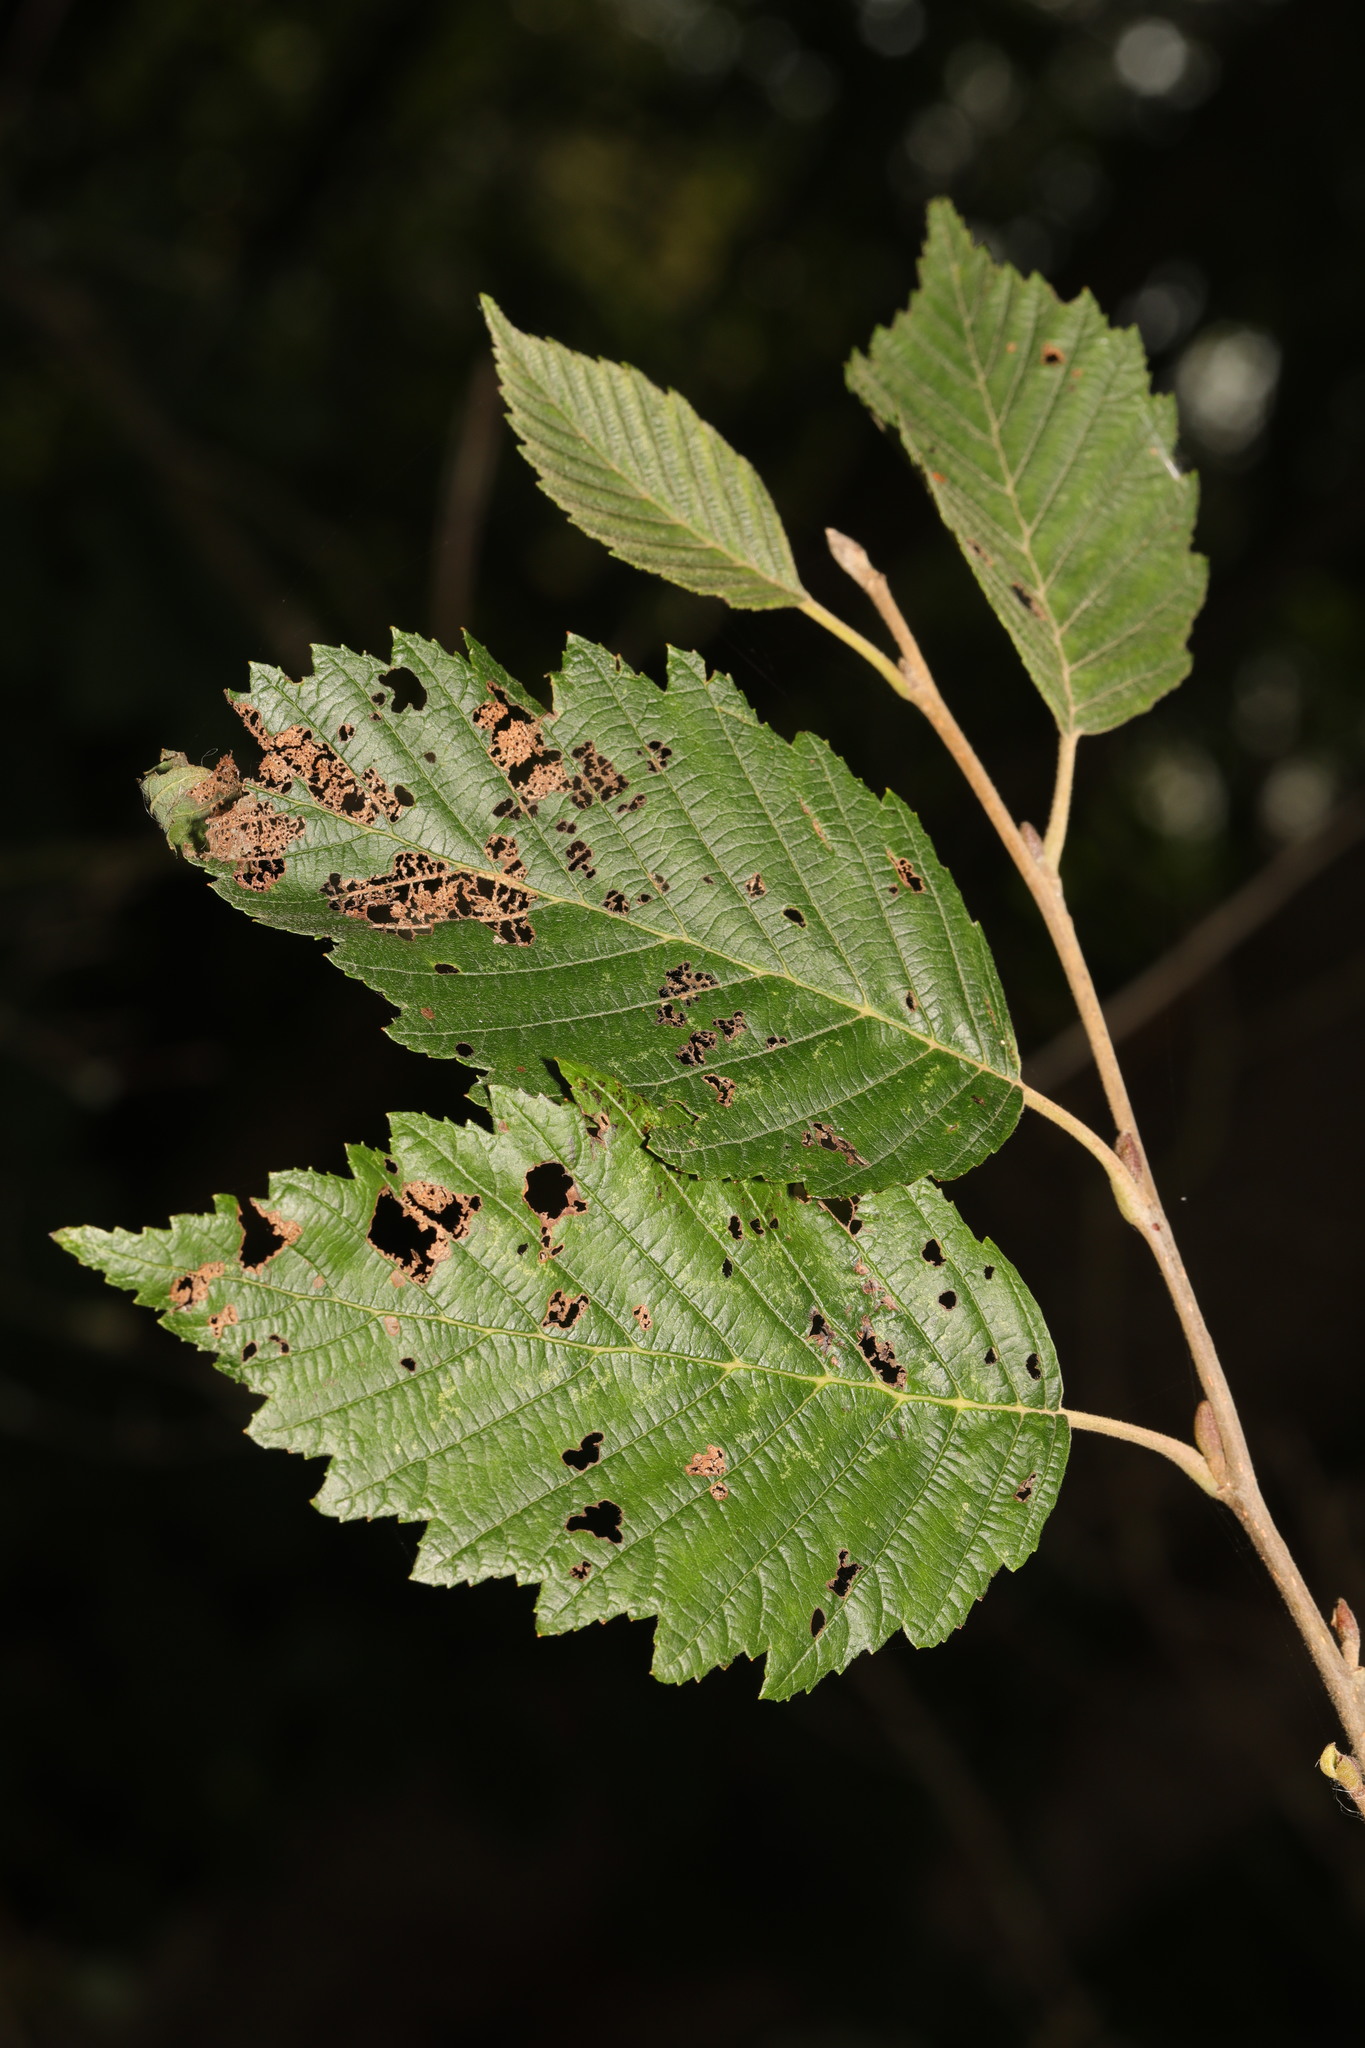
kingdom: Plantae
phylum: Tracheophyta
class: Magnoliopsida
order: Fagales
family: Betulaceae
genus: Alnus
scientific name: Alnus incana
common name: Grey alder
